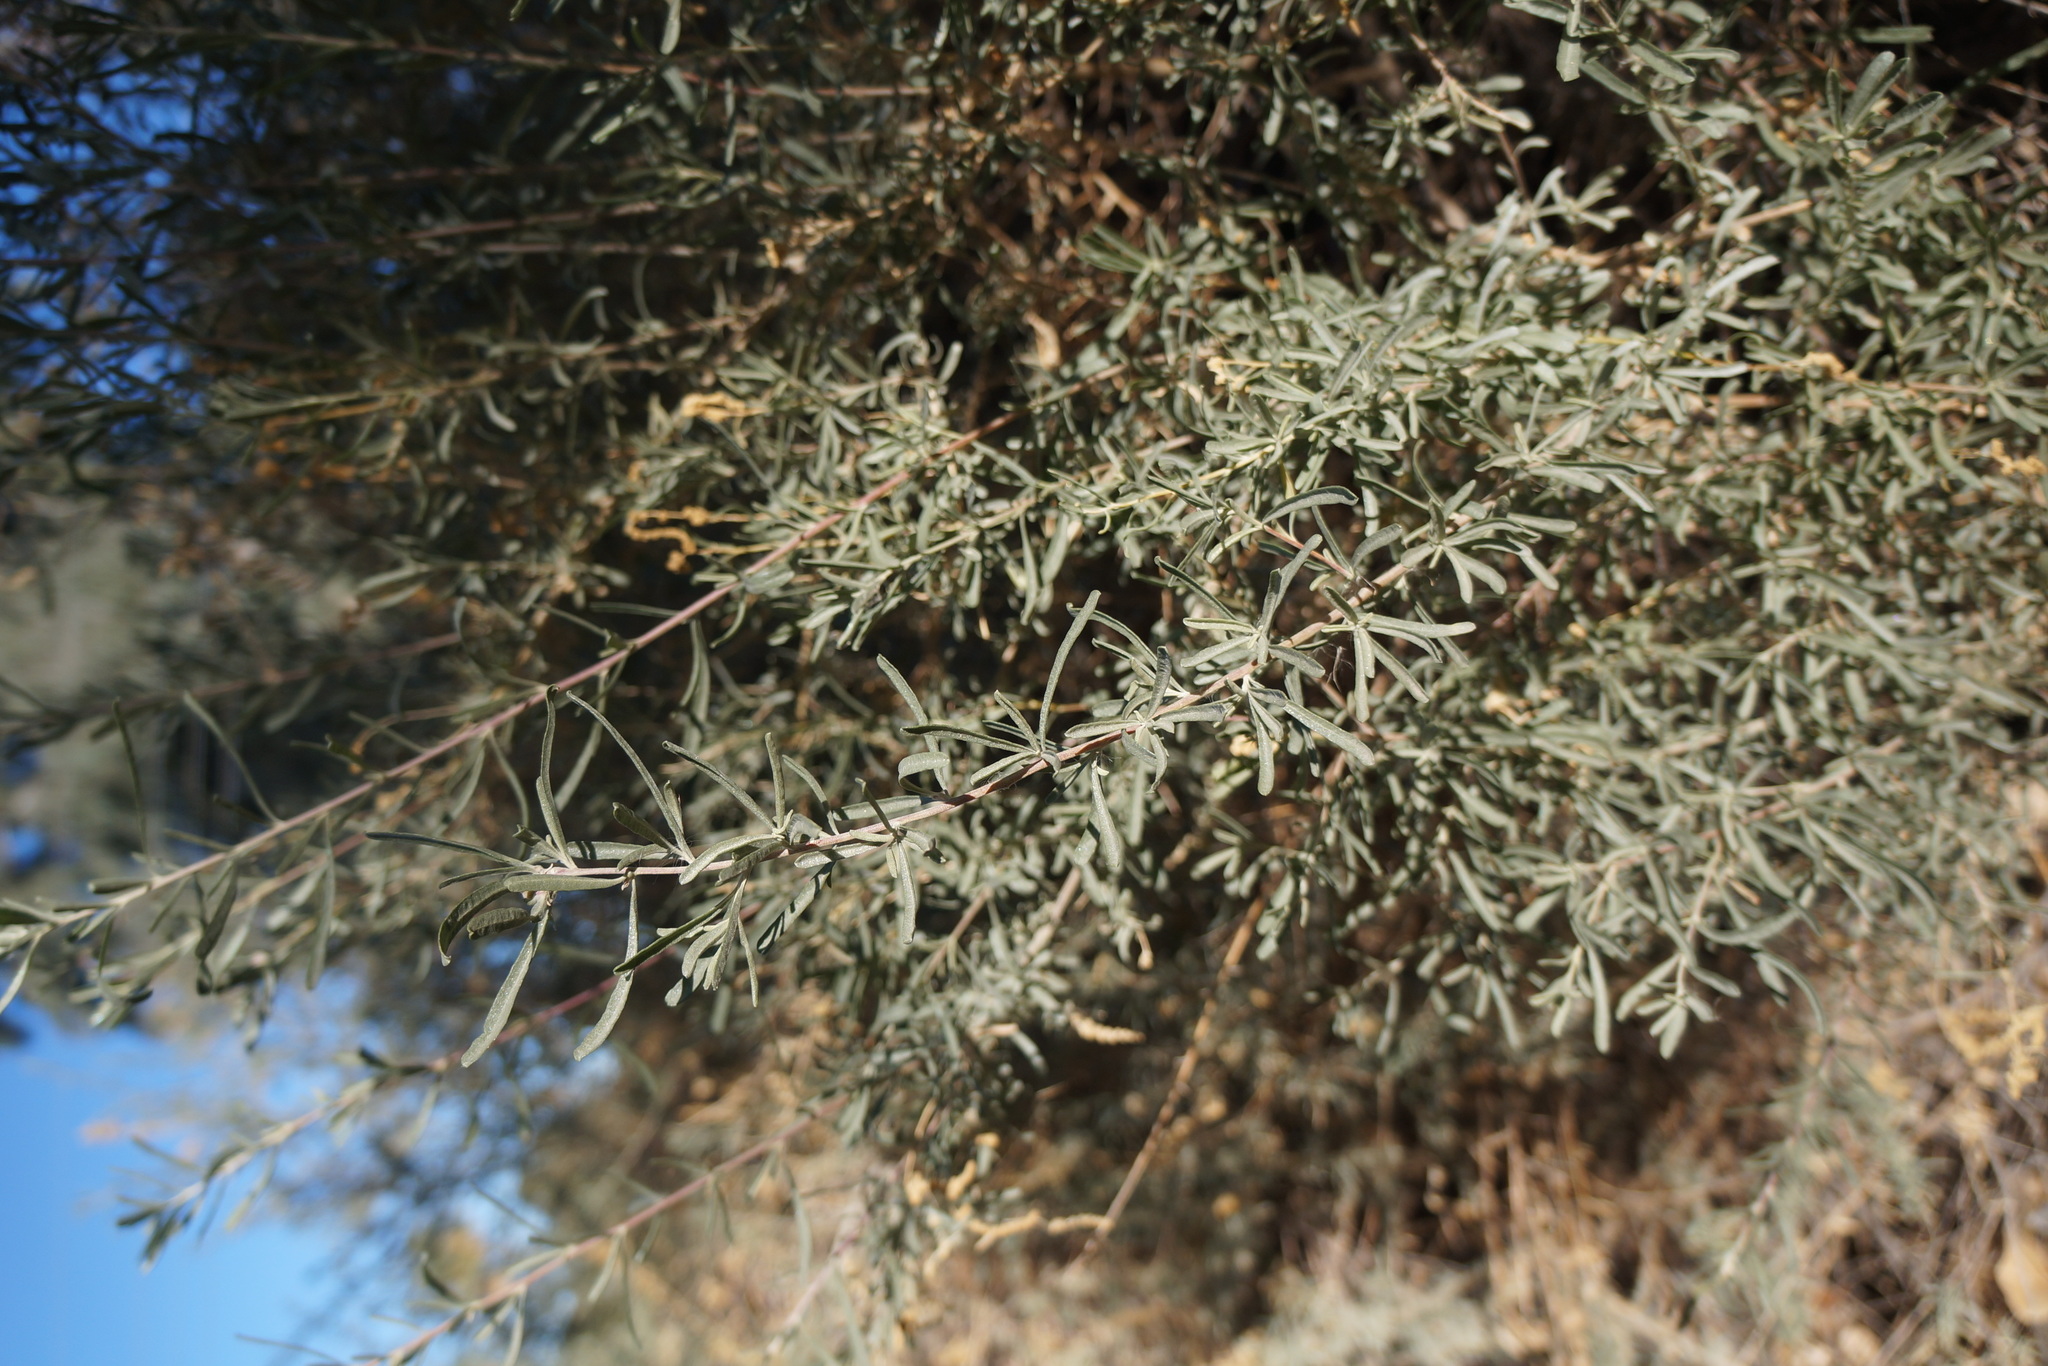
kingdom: Plantae
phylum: Tracheophyta
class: Magnoliopsida
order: Caryophyllales
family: Amaranthaceae
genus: Atriplex
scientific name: Atriplex canescens
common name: Four-wing saltbush
